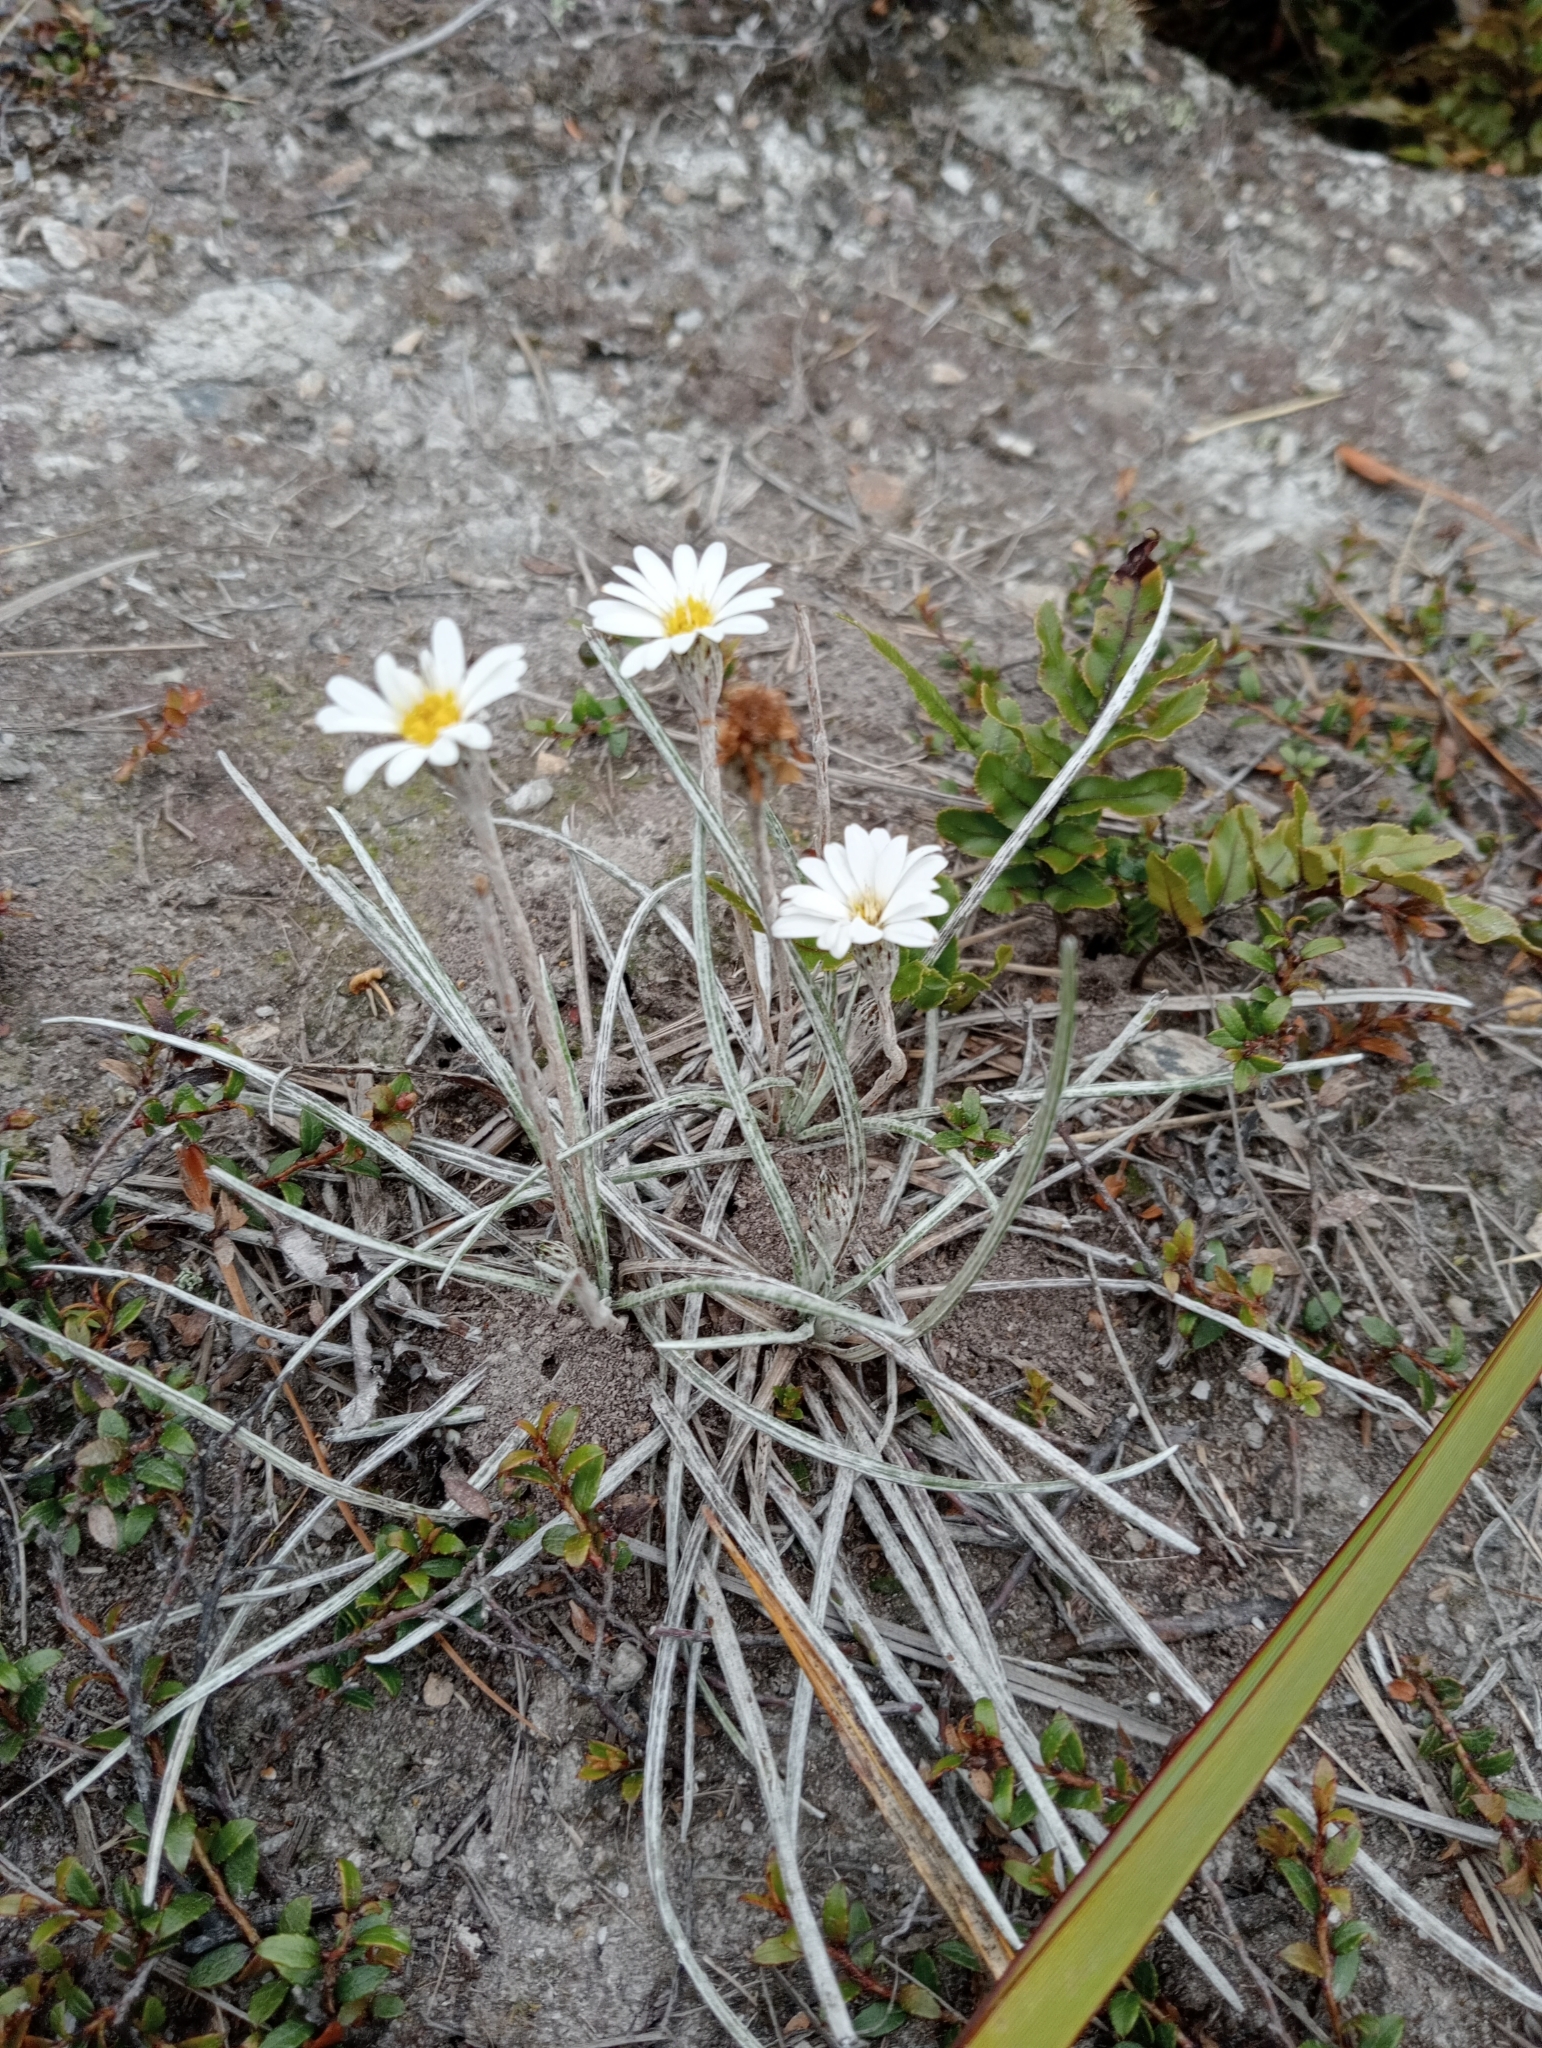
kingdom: Plantae
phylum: Tracheophyta
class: Magnoliopsida
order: Asterales
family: Asteraceae
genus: Celmisia
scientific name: Celmisia gracilenta
